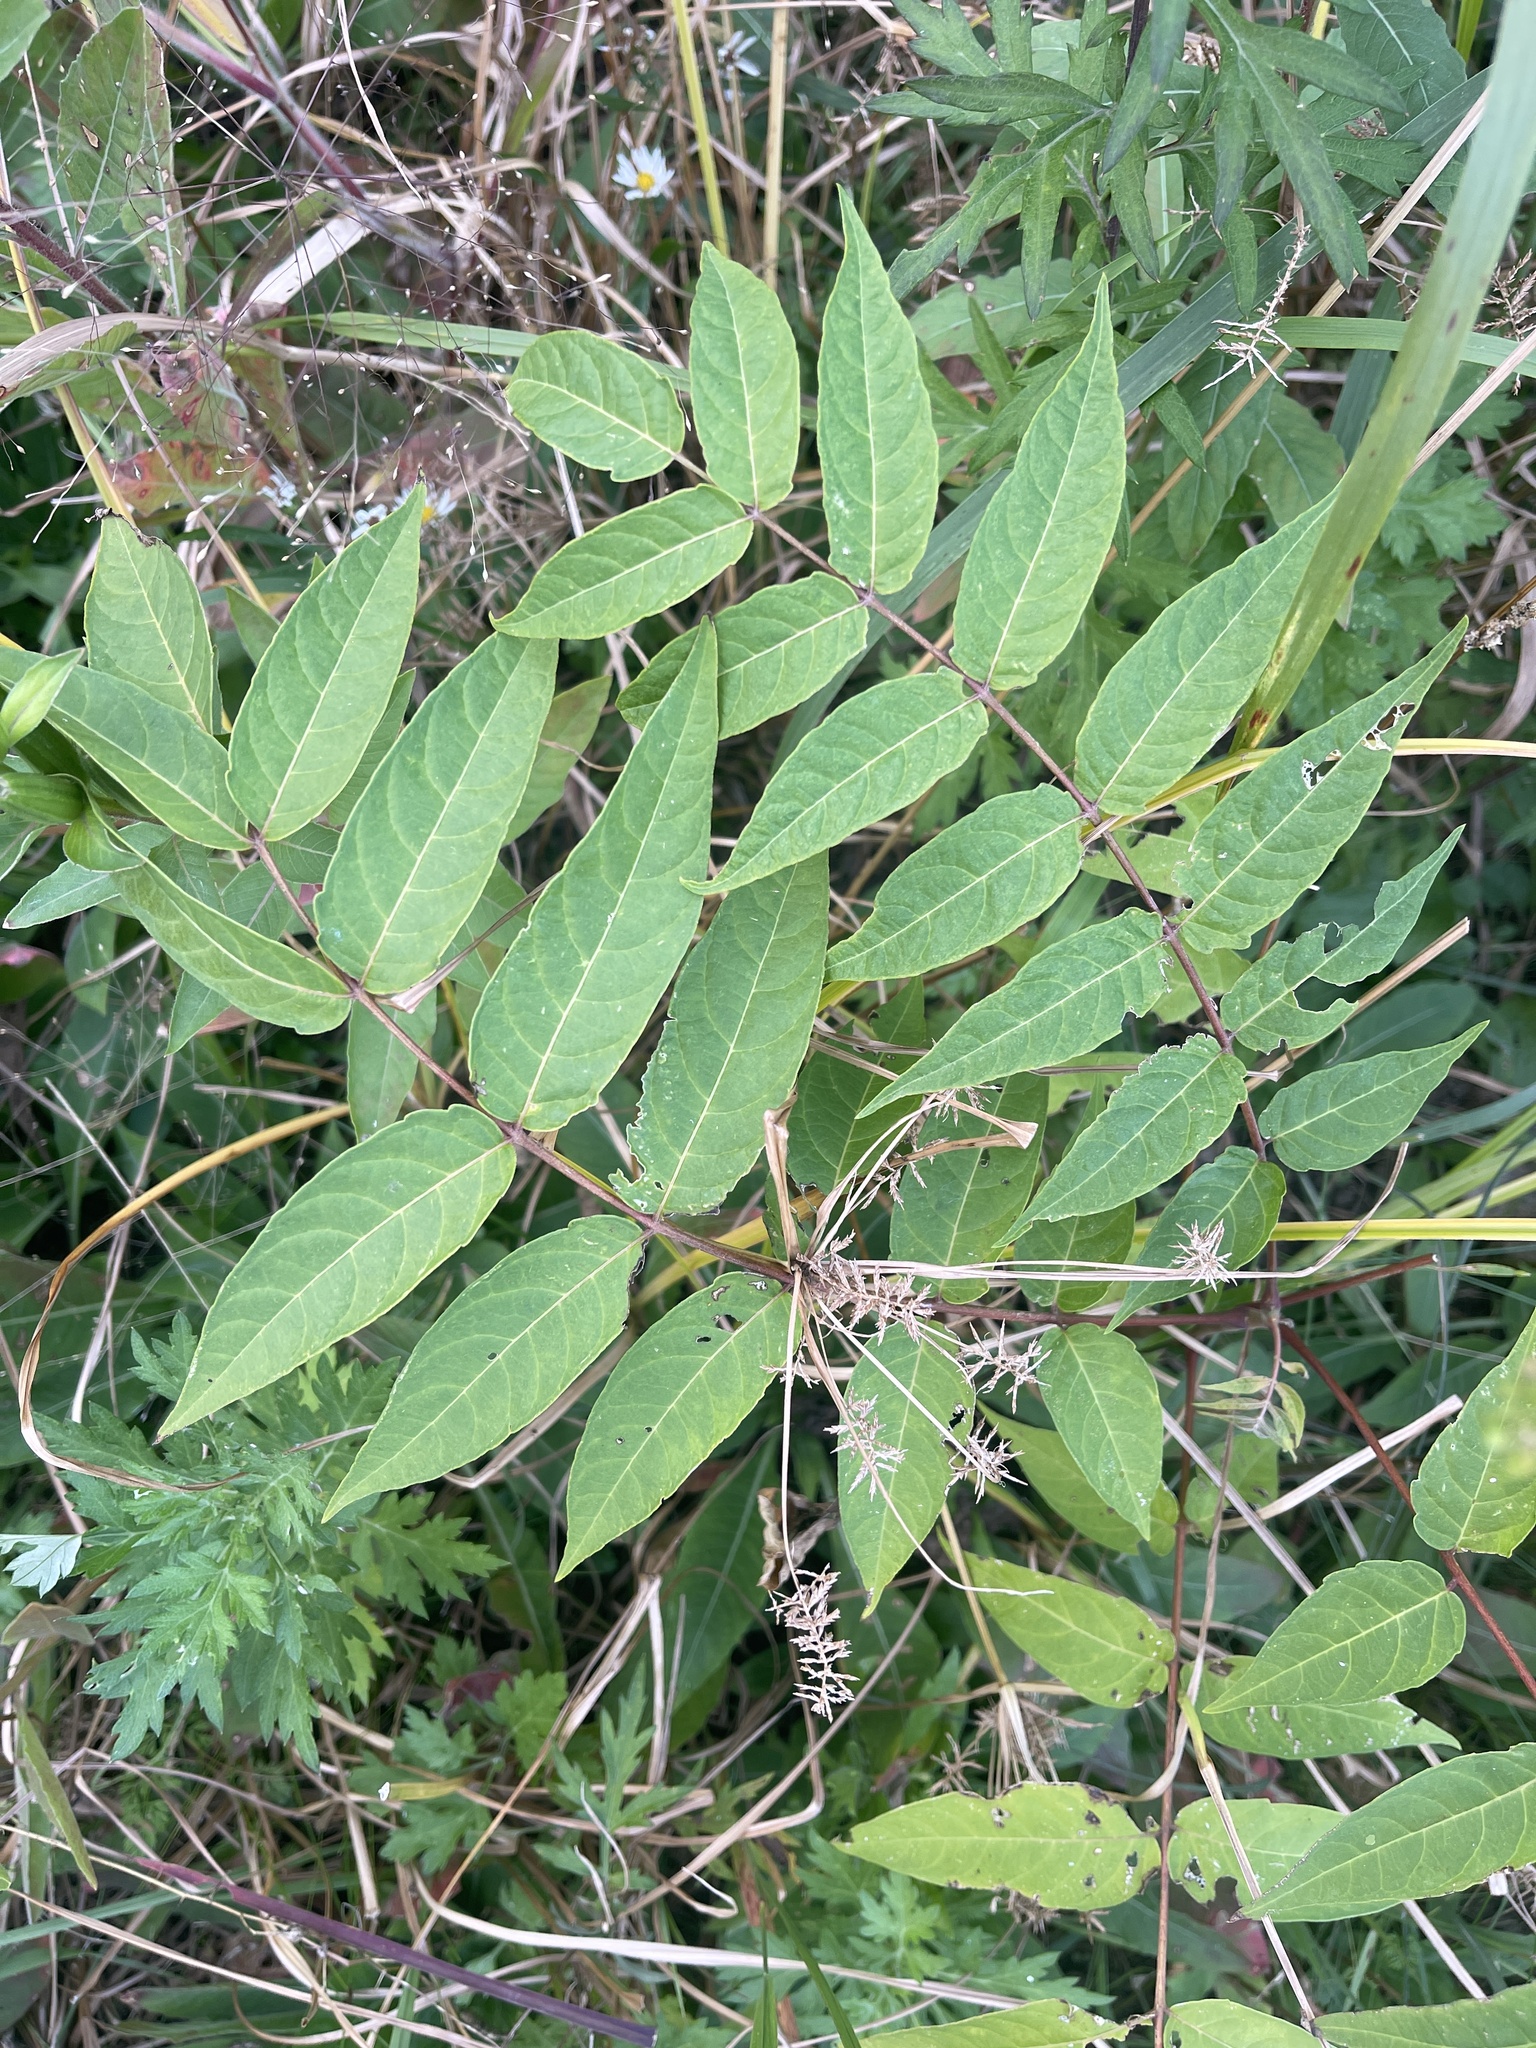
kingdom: Plantae
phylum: Tracheophyta
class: Magnoliopsida
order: Sapindales
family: Simaroubaceae
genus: Ailanthus
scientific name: Ailanthus altissima
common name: Tree-of-heaven
